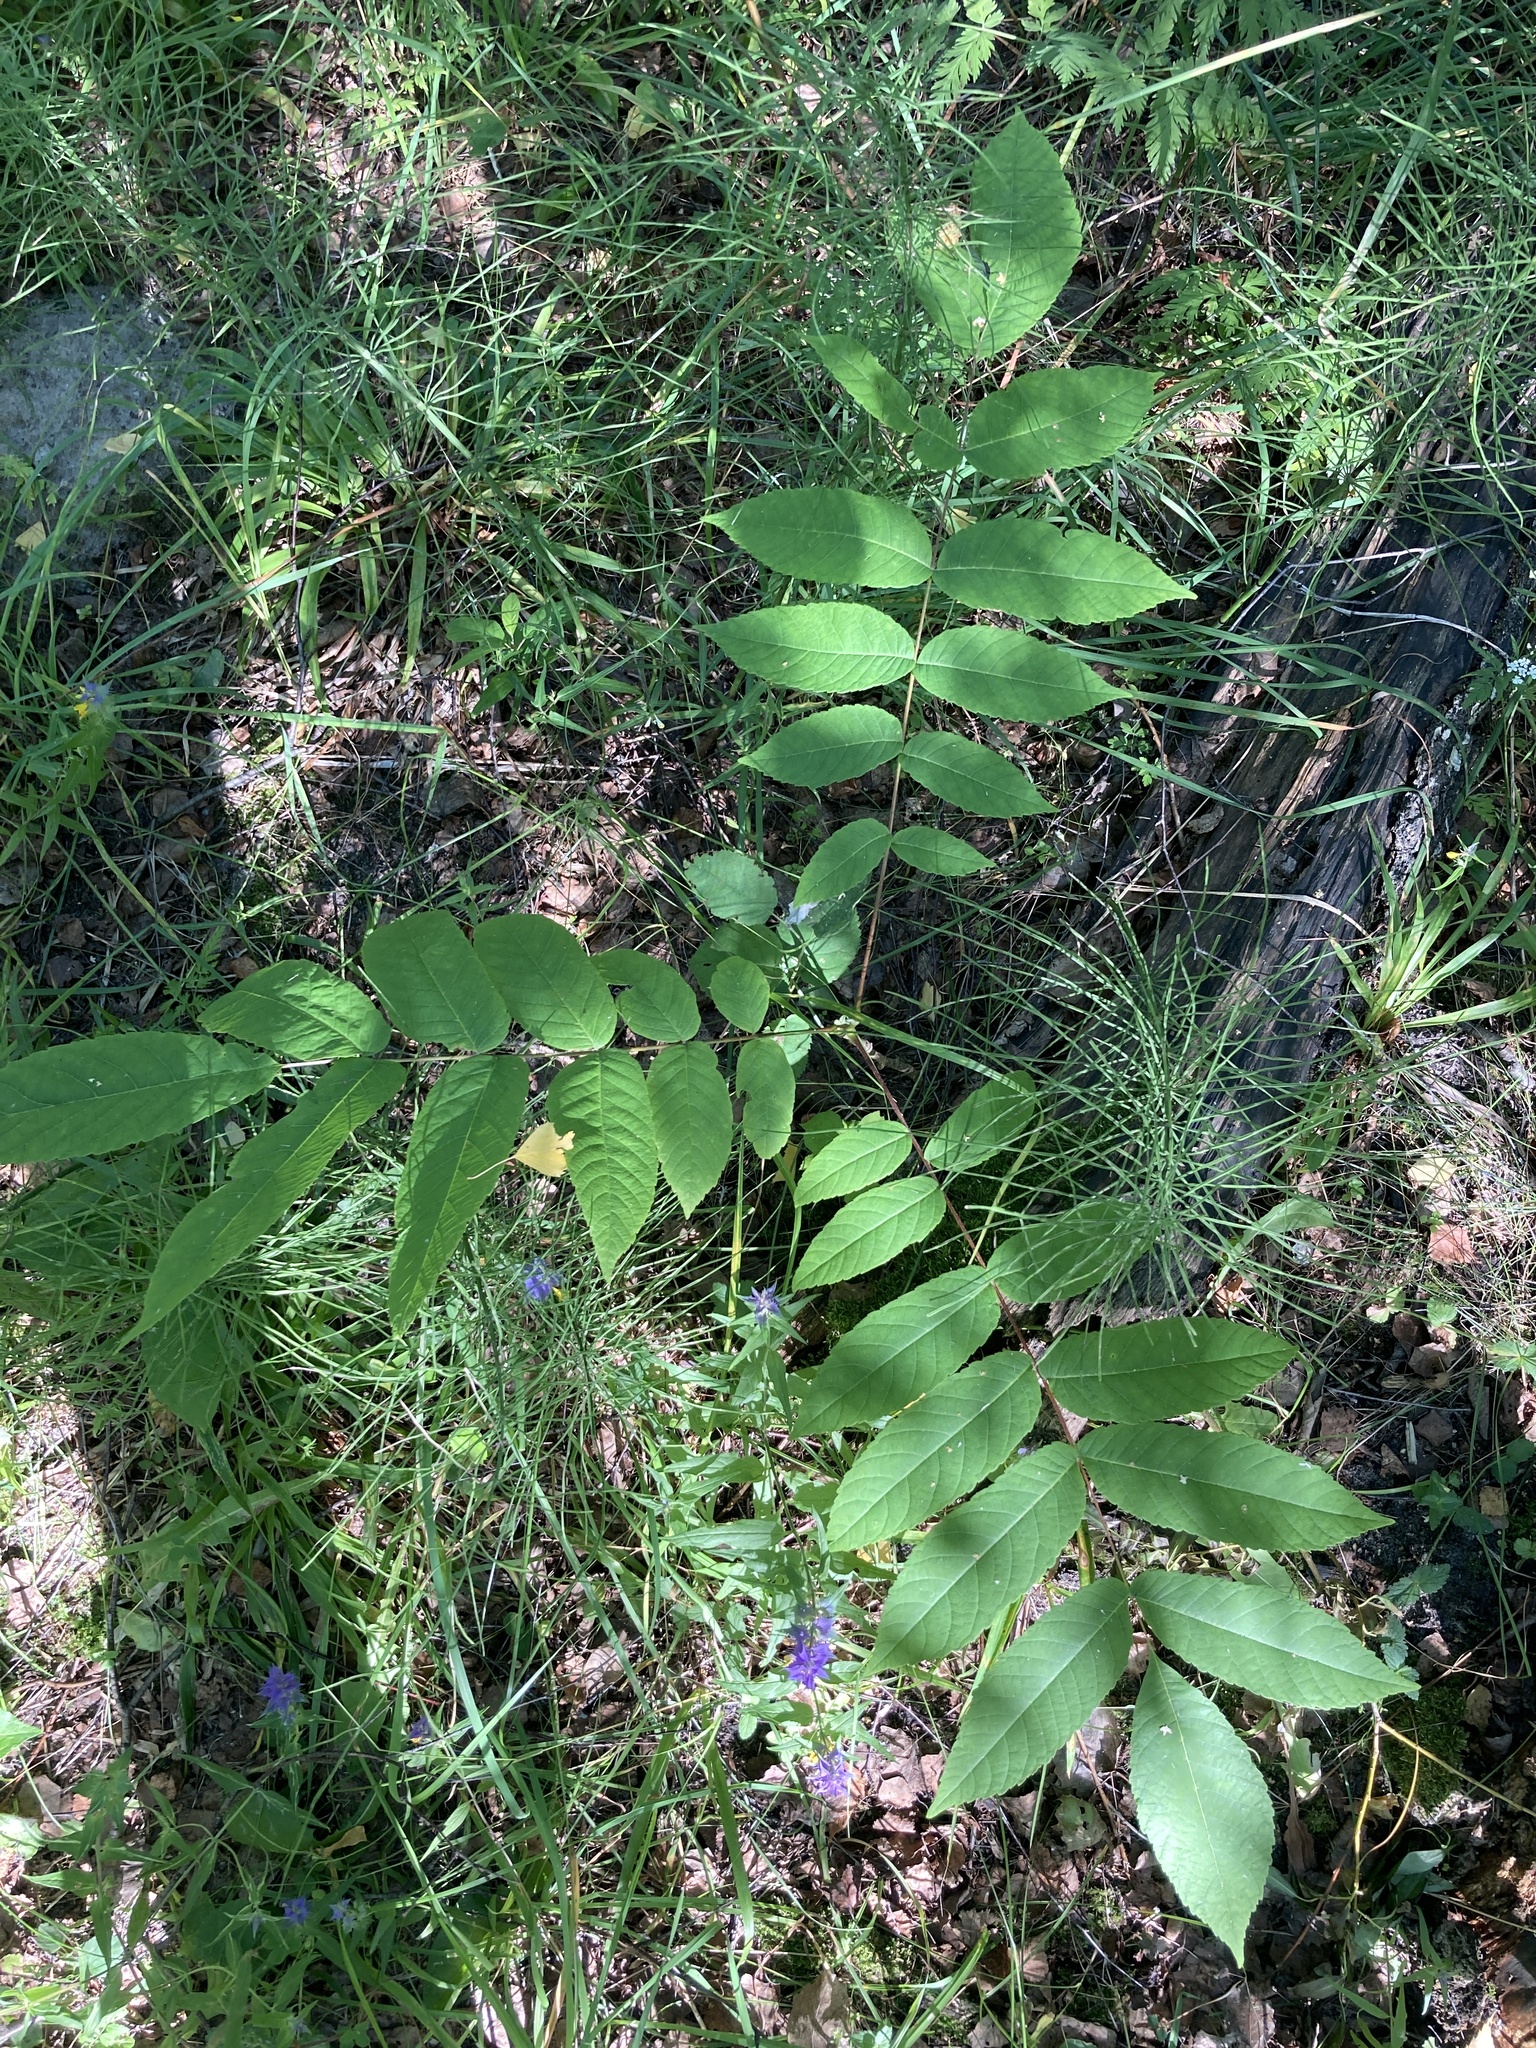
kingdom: Plantae
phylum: Tracheophyta
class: Magnoliopsida
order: Fagales
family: Juglandaceae
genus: Juglans
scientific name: Juglans mandshurica
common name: Manchurian walnut
